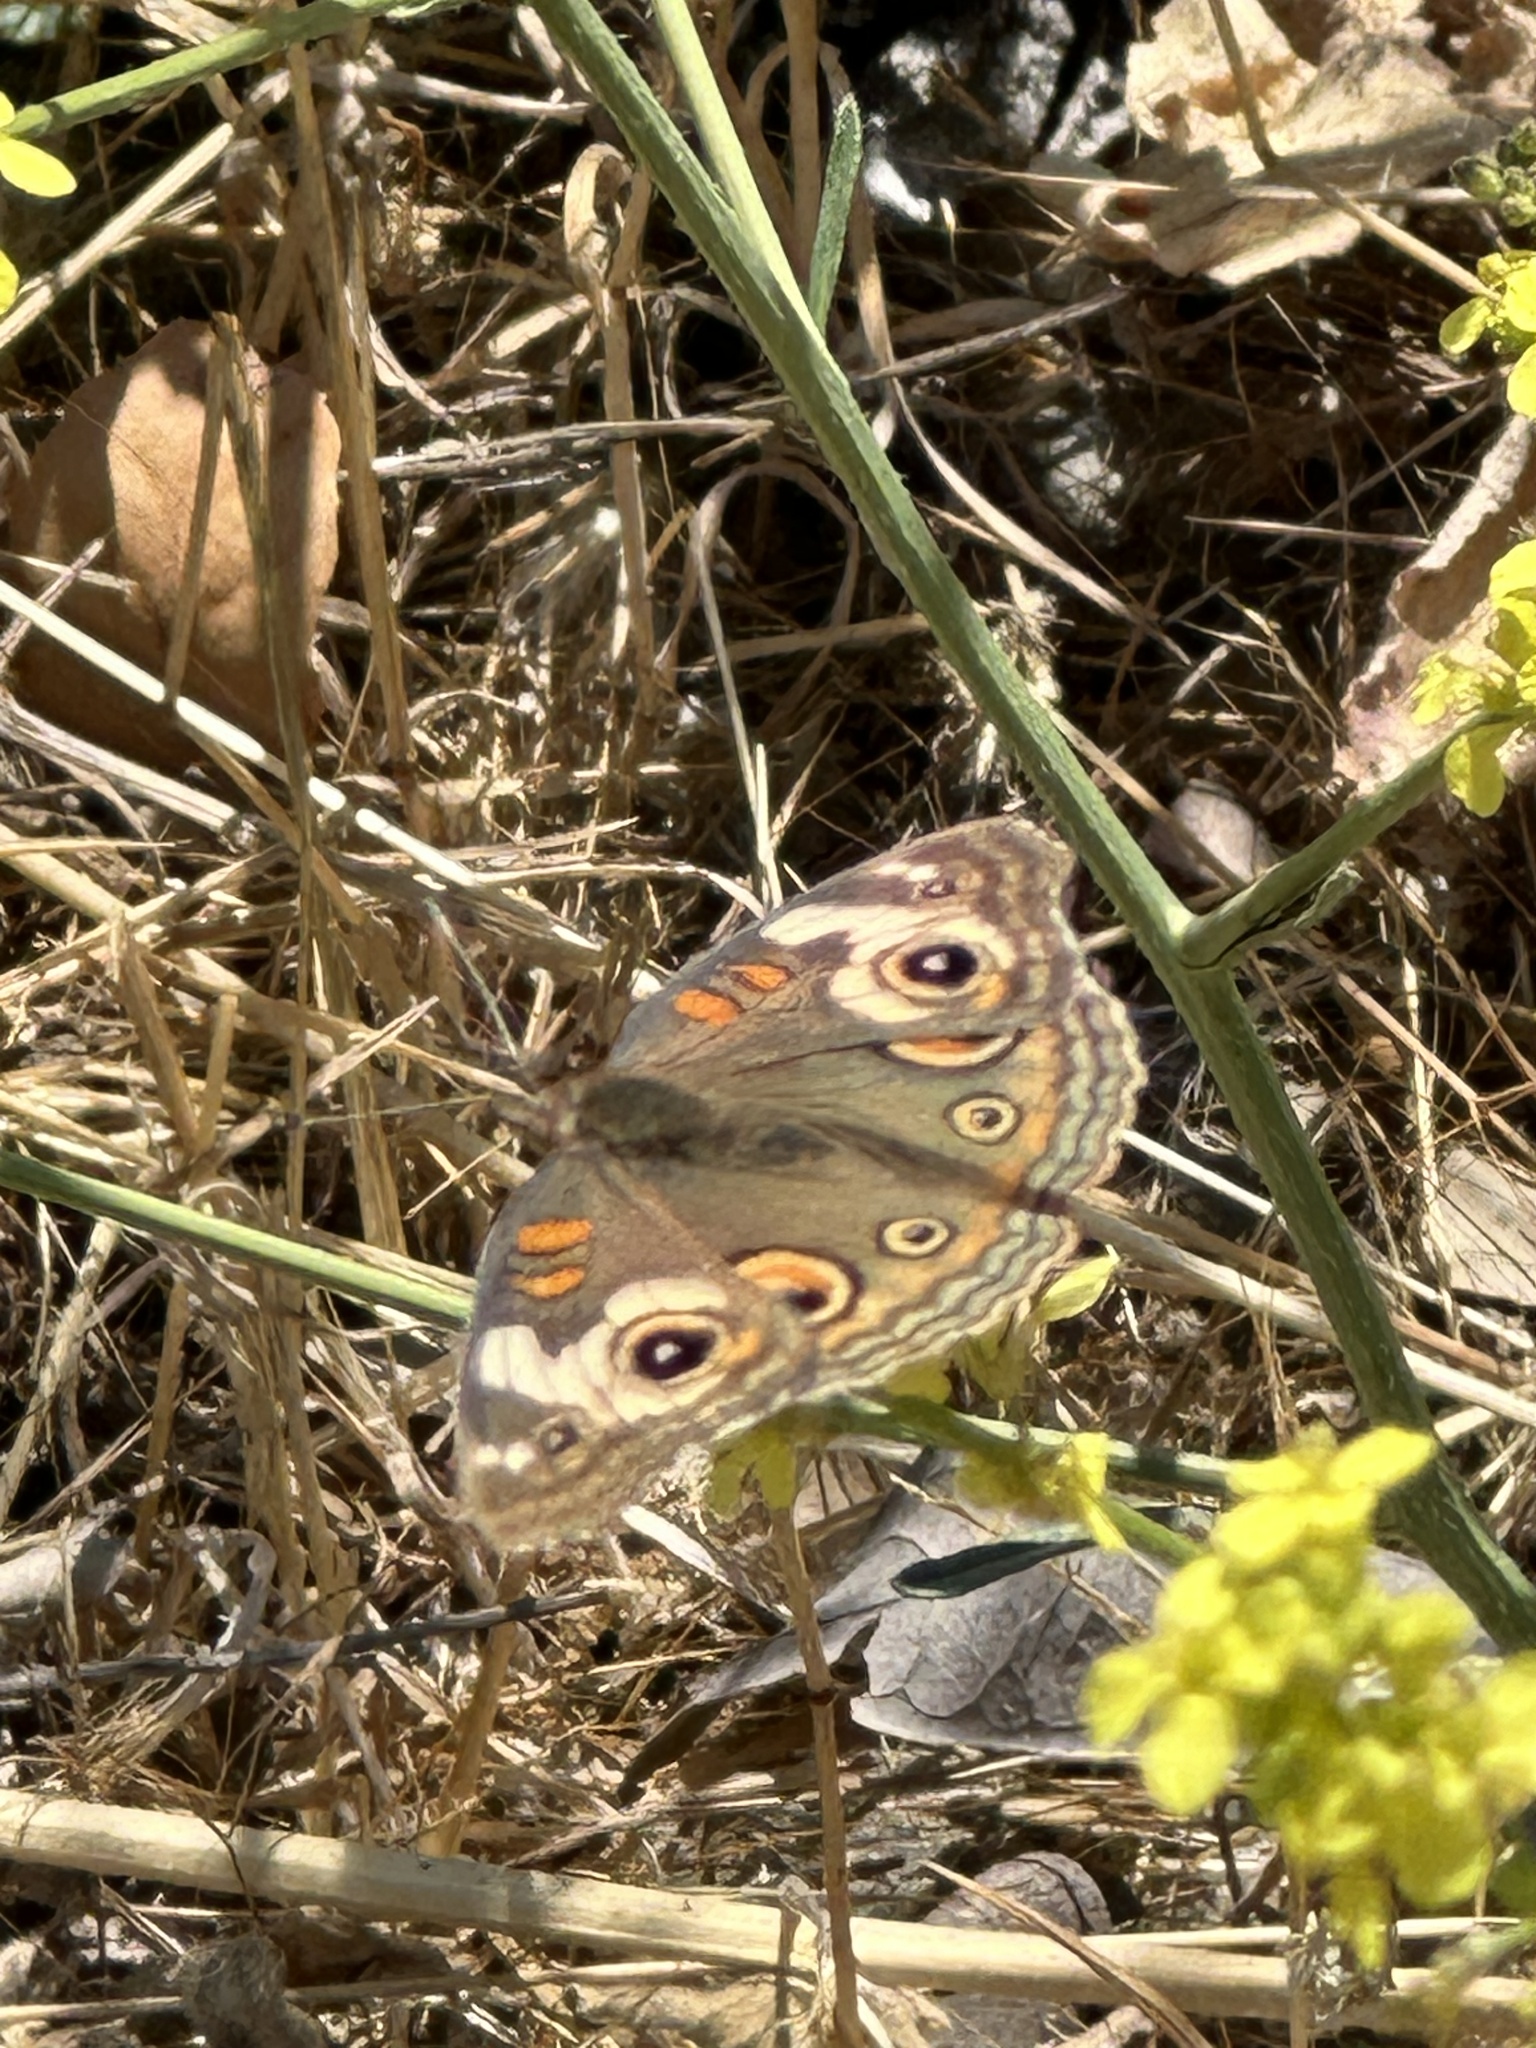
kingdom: Animalia
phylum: Arthropoda
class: Insecta
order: Lepidoptera
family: Nymphalidae
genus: Junonia
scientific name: Junonia grisea
